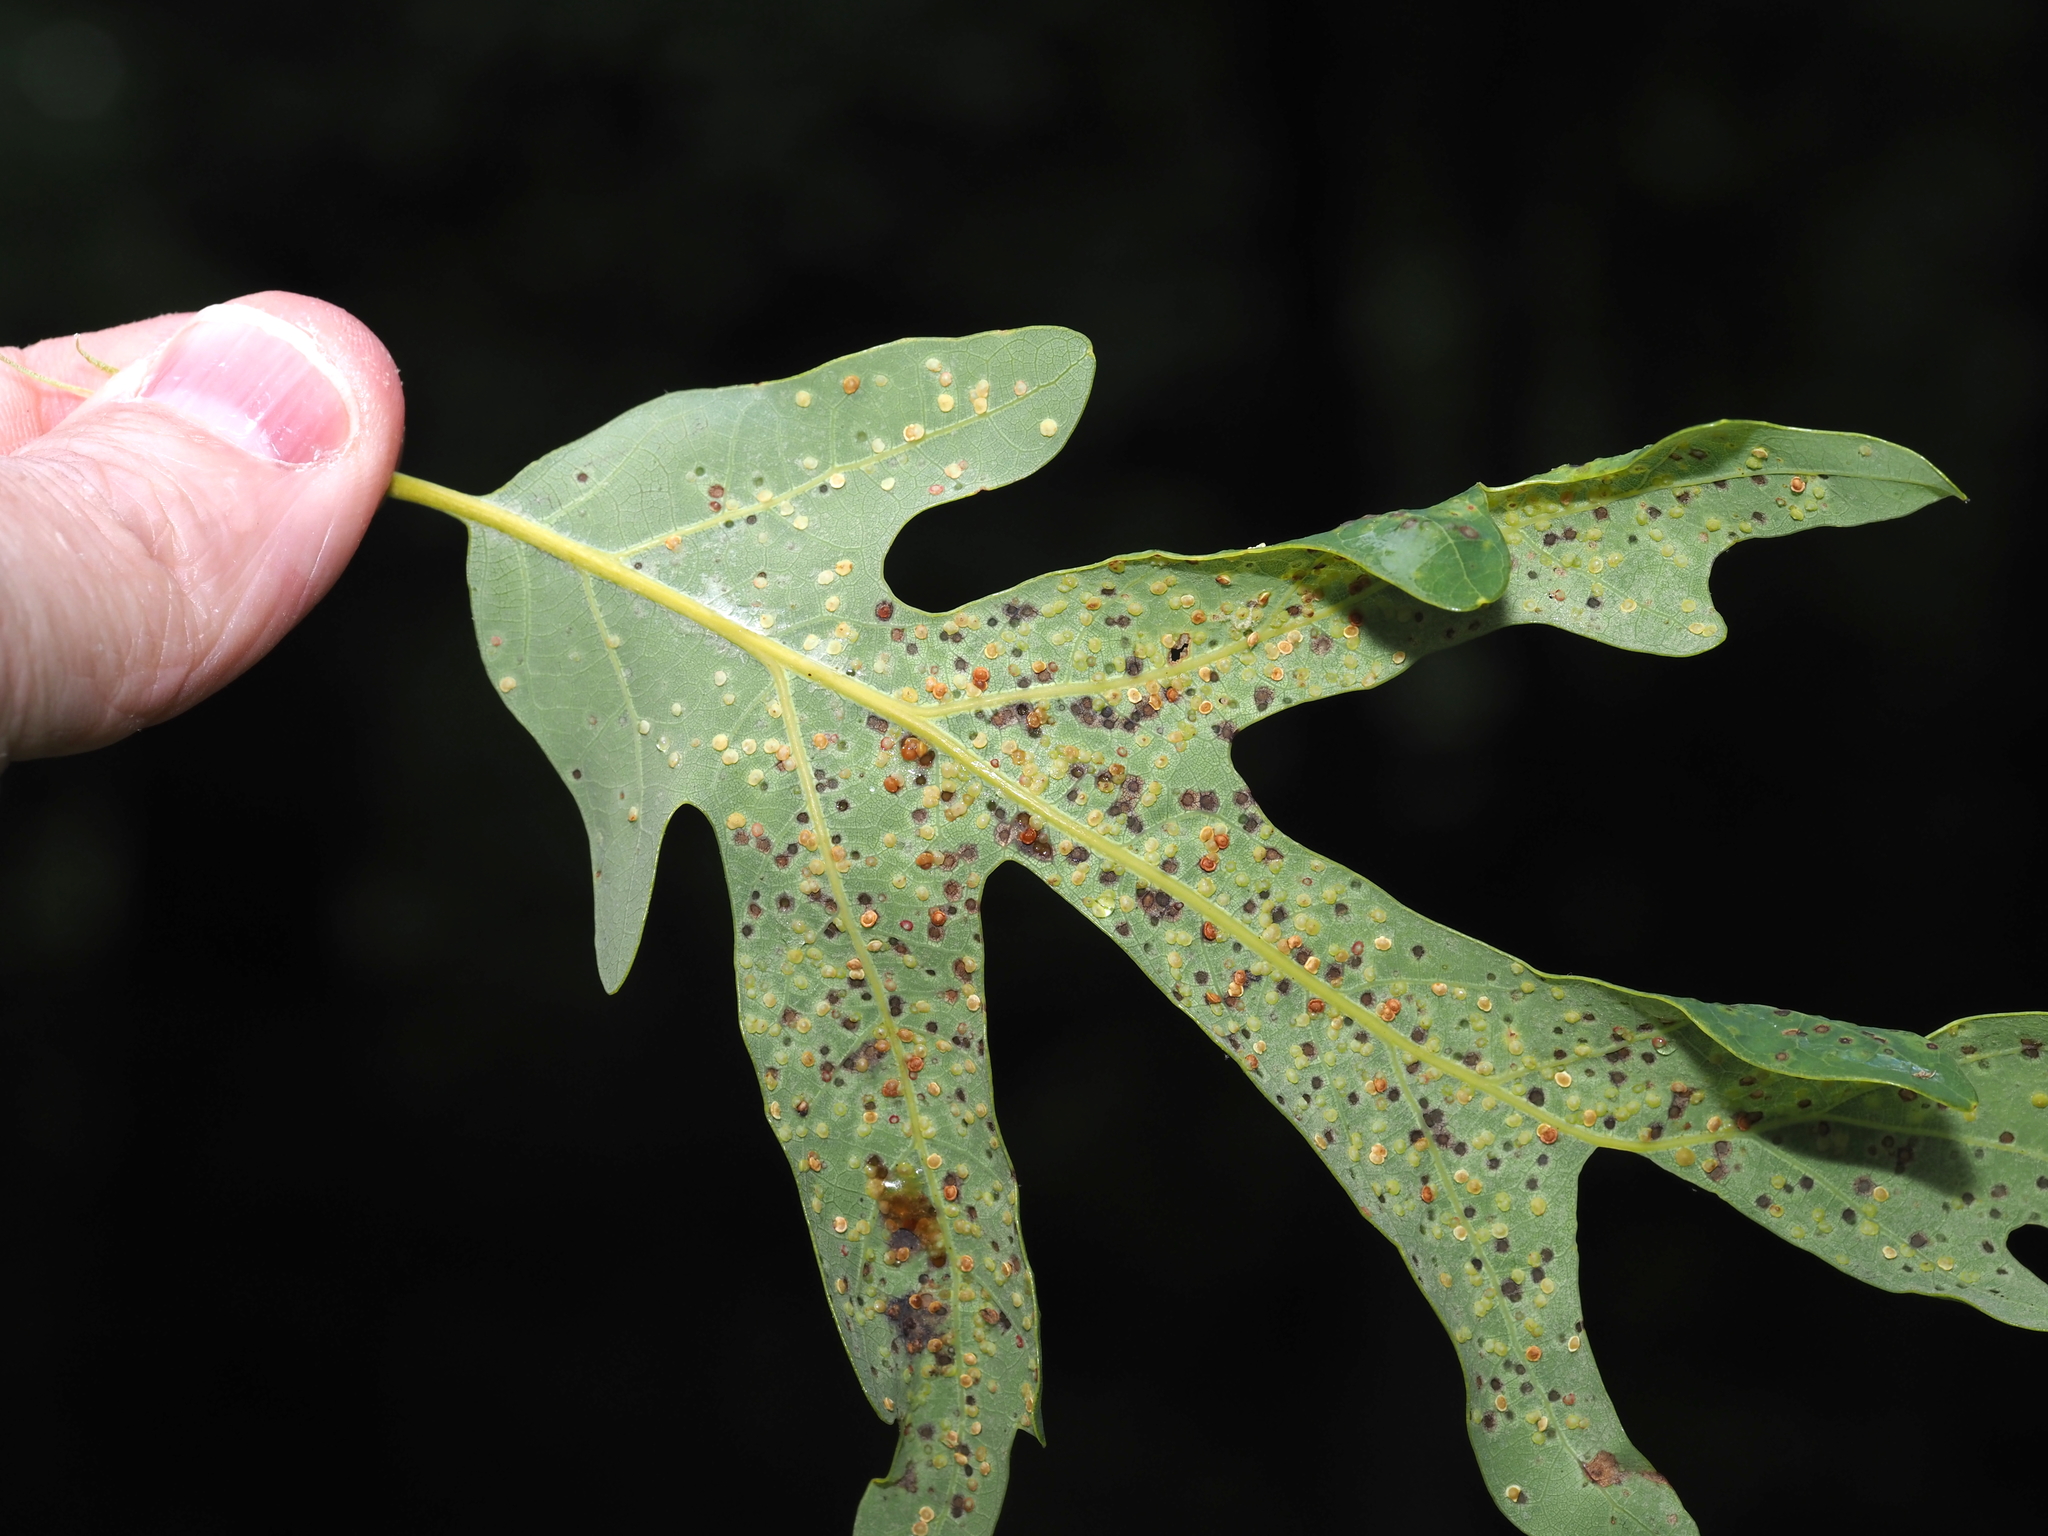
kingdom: Animalia
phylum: Arthropoda
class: Insecta
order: Hymenoptera
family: Cynipidae
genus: Neuroterus
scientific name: Neuroterus
